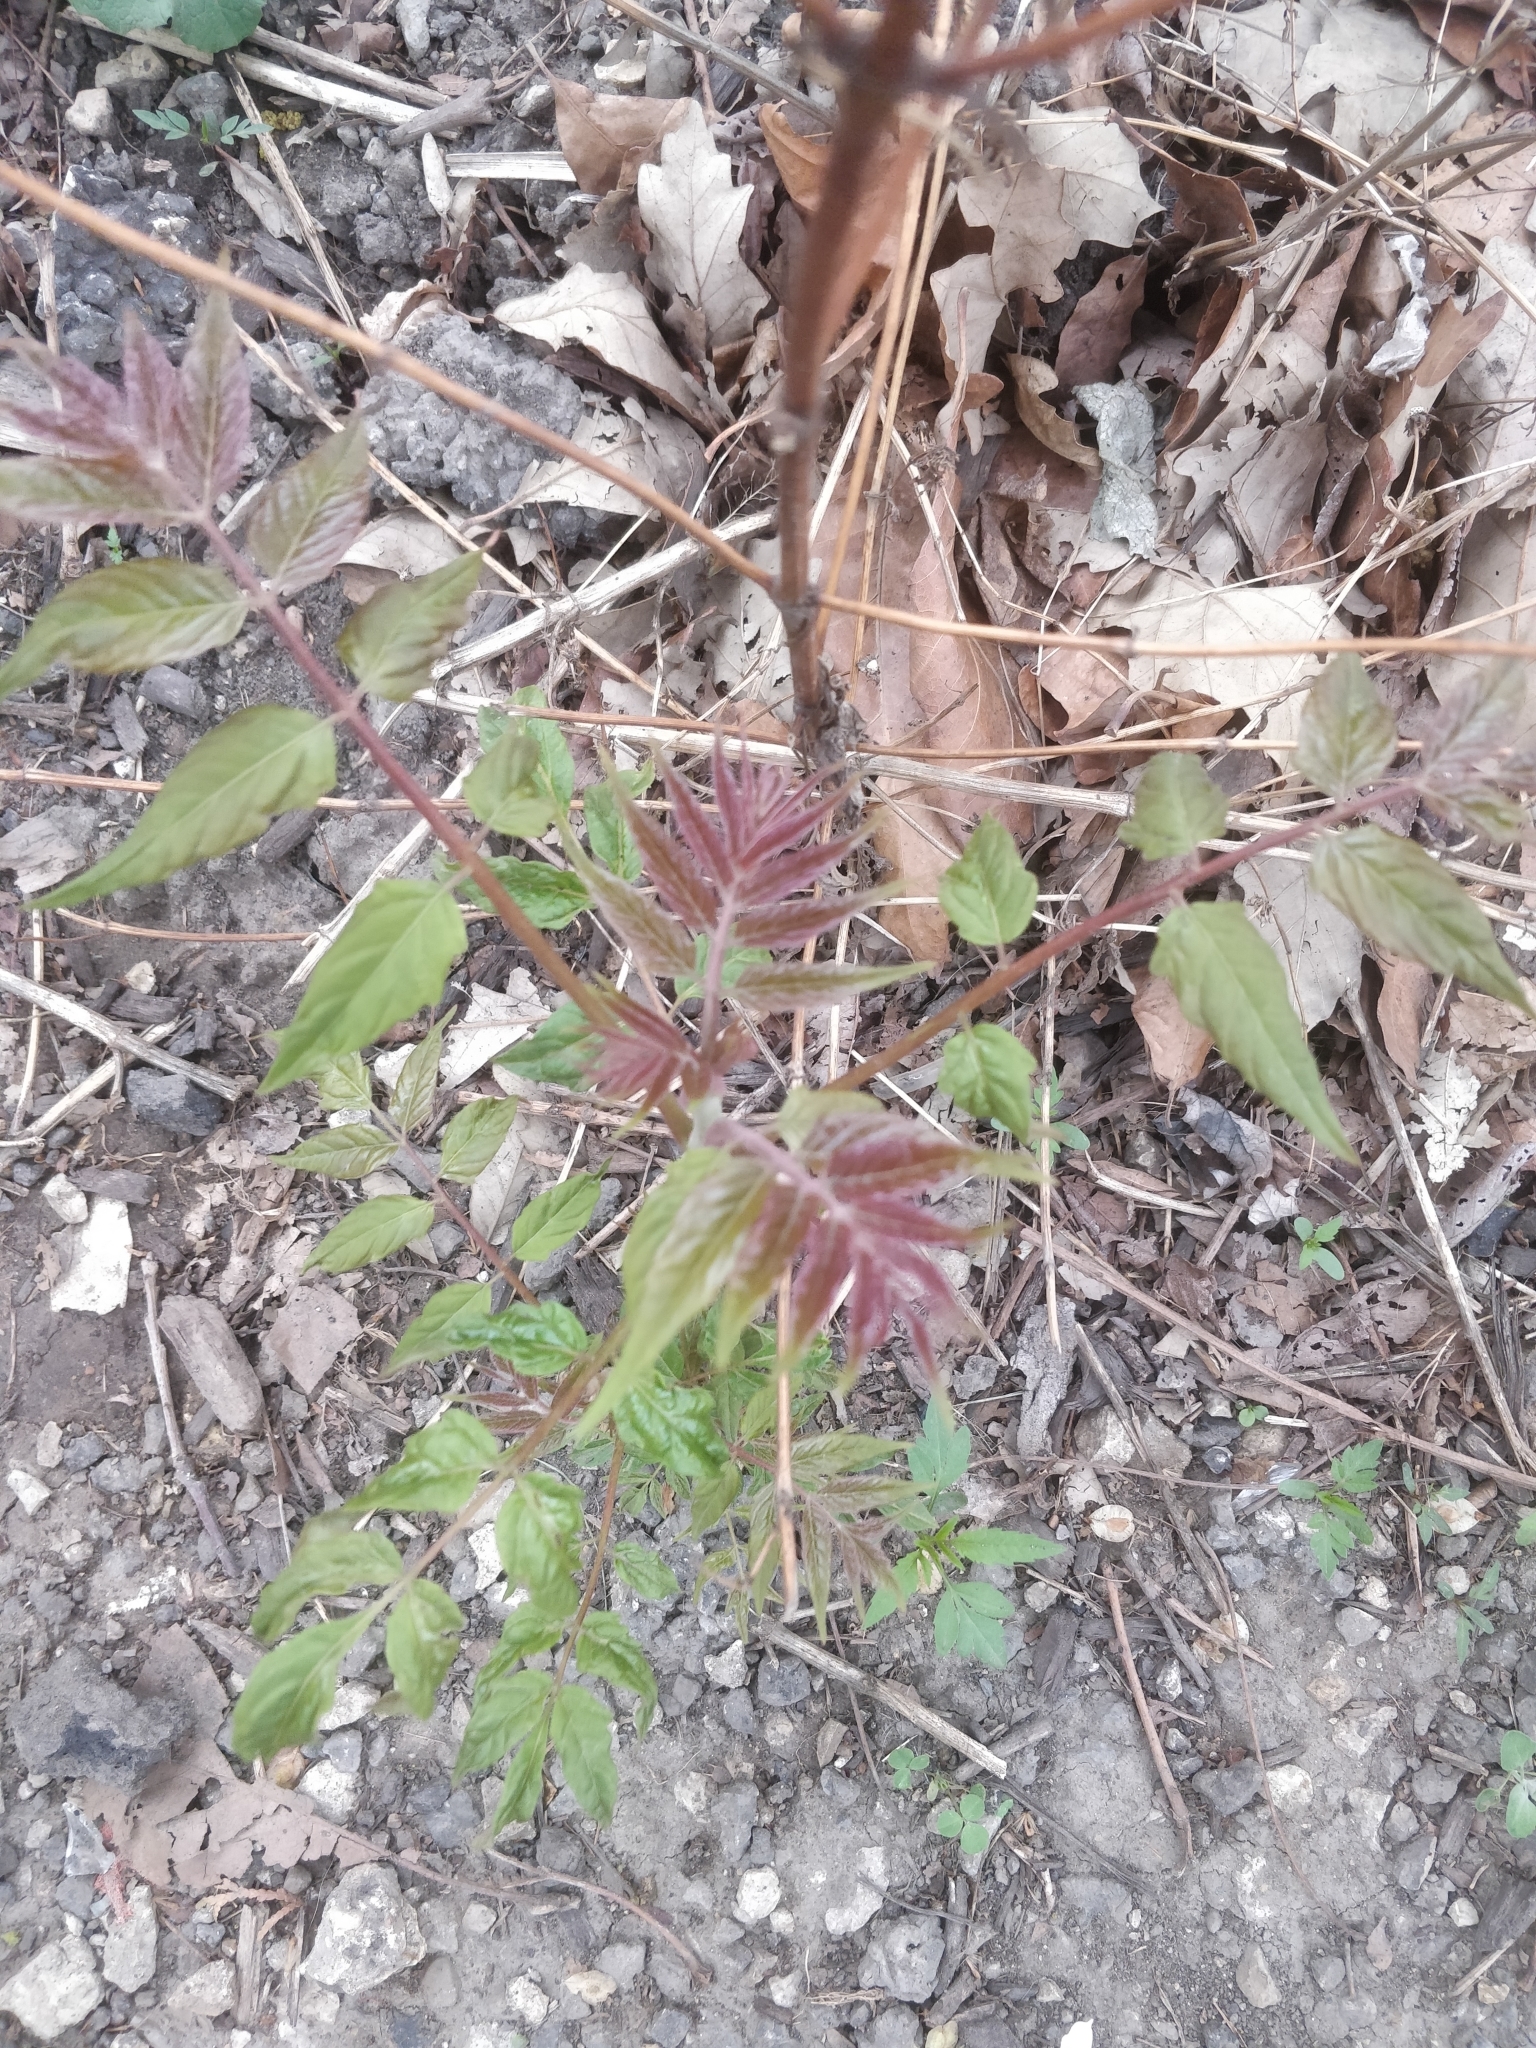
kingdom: Plantae
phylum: Tracheophyta
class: Magnoliopsida
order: Sapindales
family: Simaroubaceae
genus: Ailanthus
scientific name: Ailanthus altissima
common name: Tree-of-heaven
